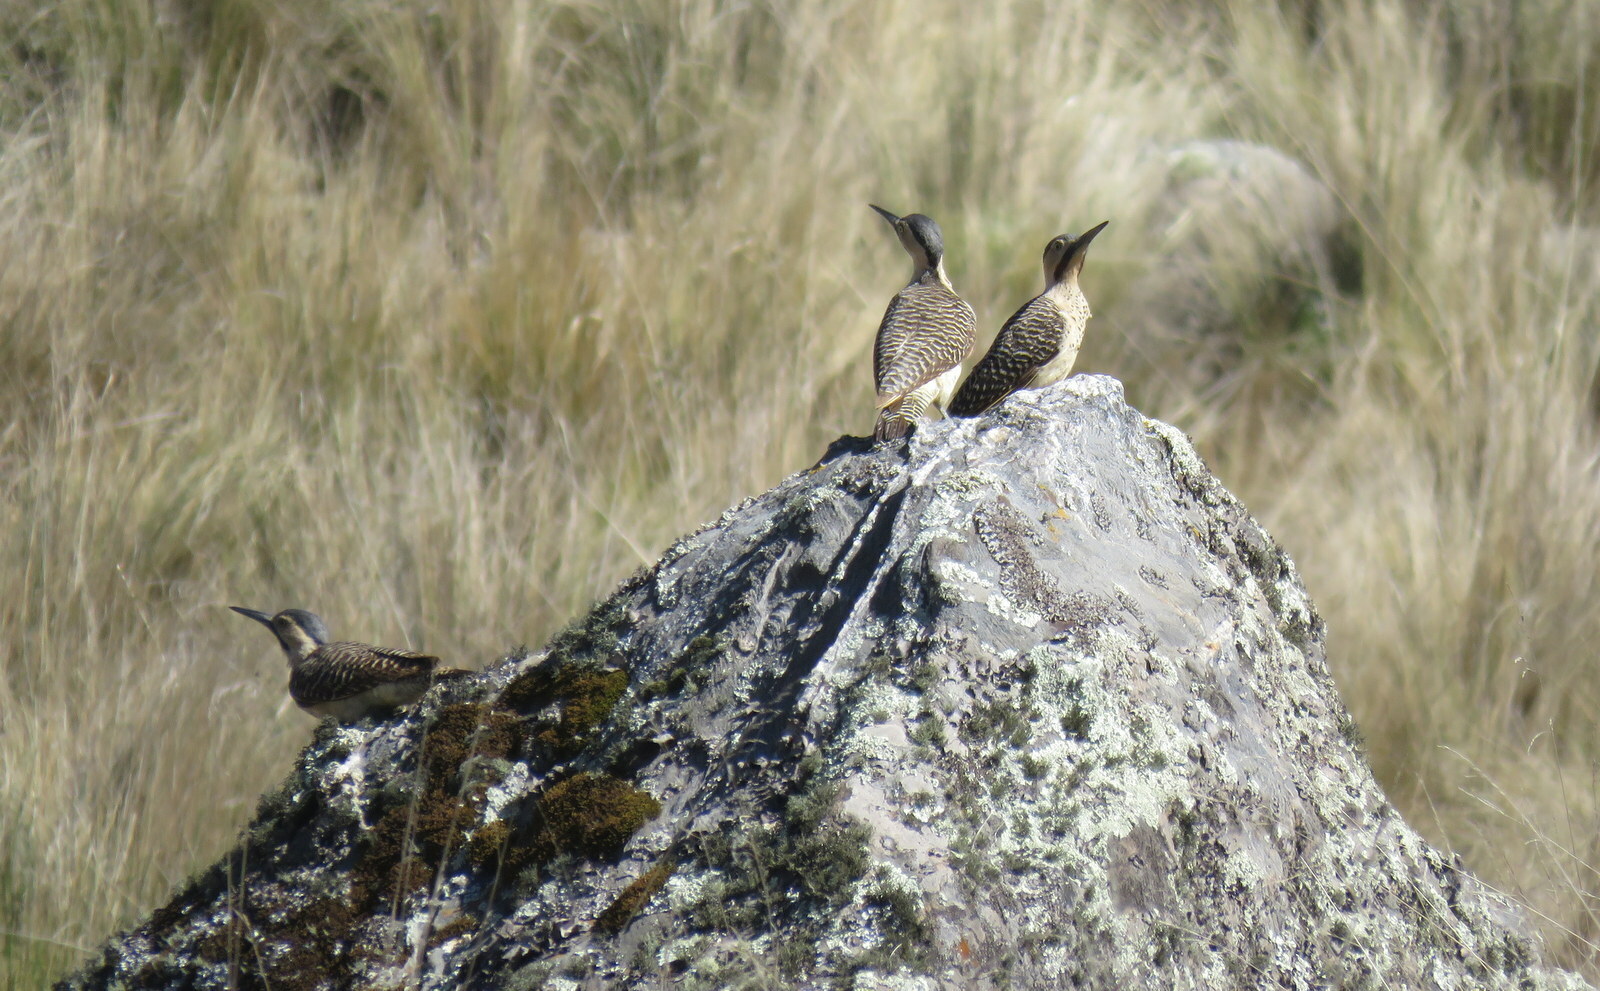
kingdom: Animalia
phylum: Chordata
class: Aves
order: Piciformes
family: Picidae
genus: Colaptes
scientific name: Colaptes rupicola
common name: Andean flicker
